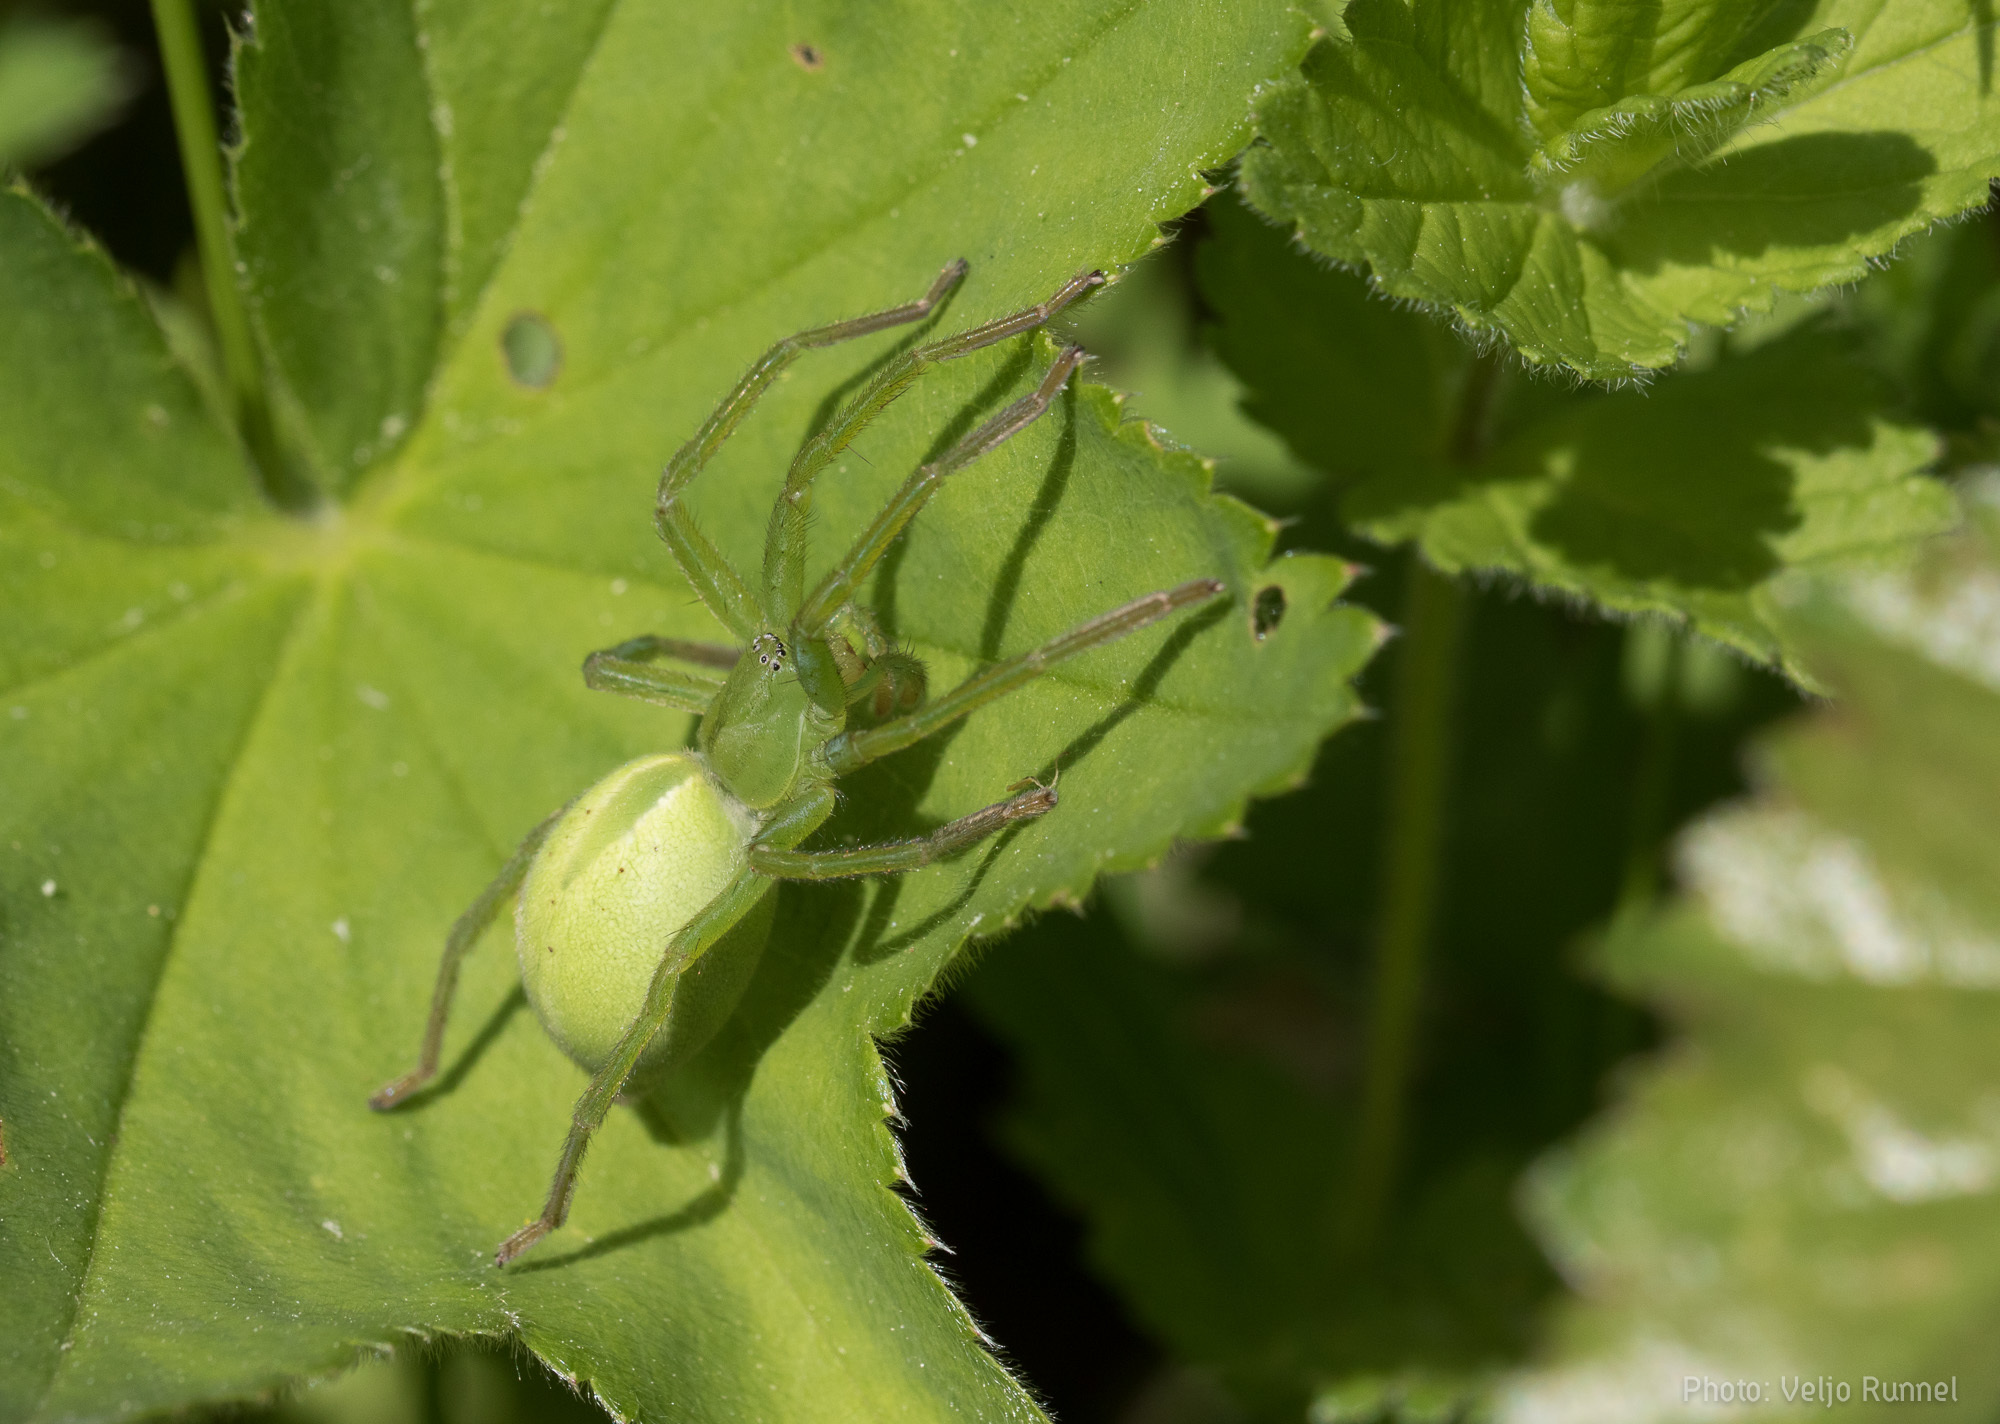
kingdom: Animalia
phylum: Arthropoda
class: Arachnida
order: Araneae
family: Sparassidae
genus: Micrommata
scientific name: Micrommata virescens
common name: Green spider
